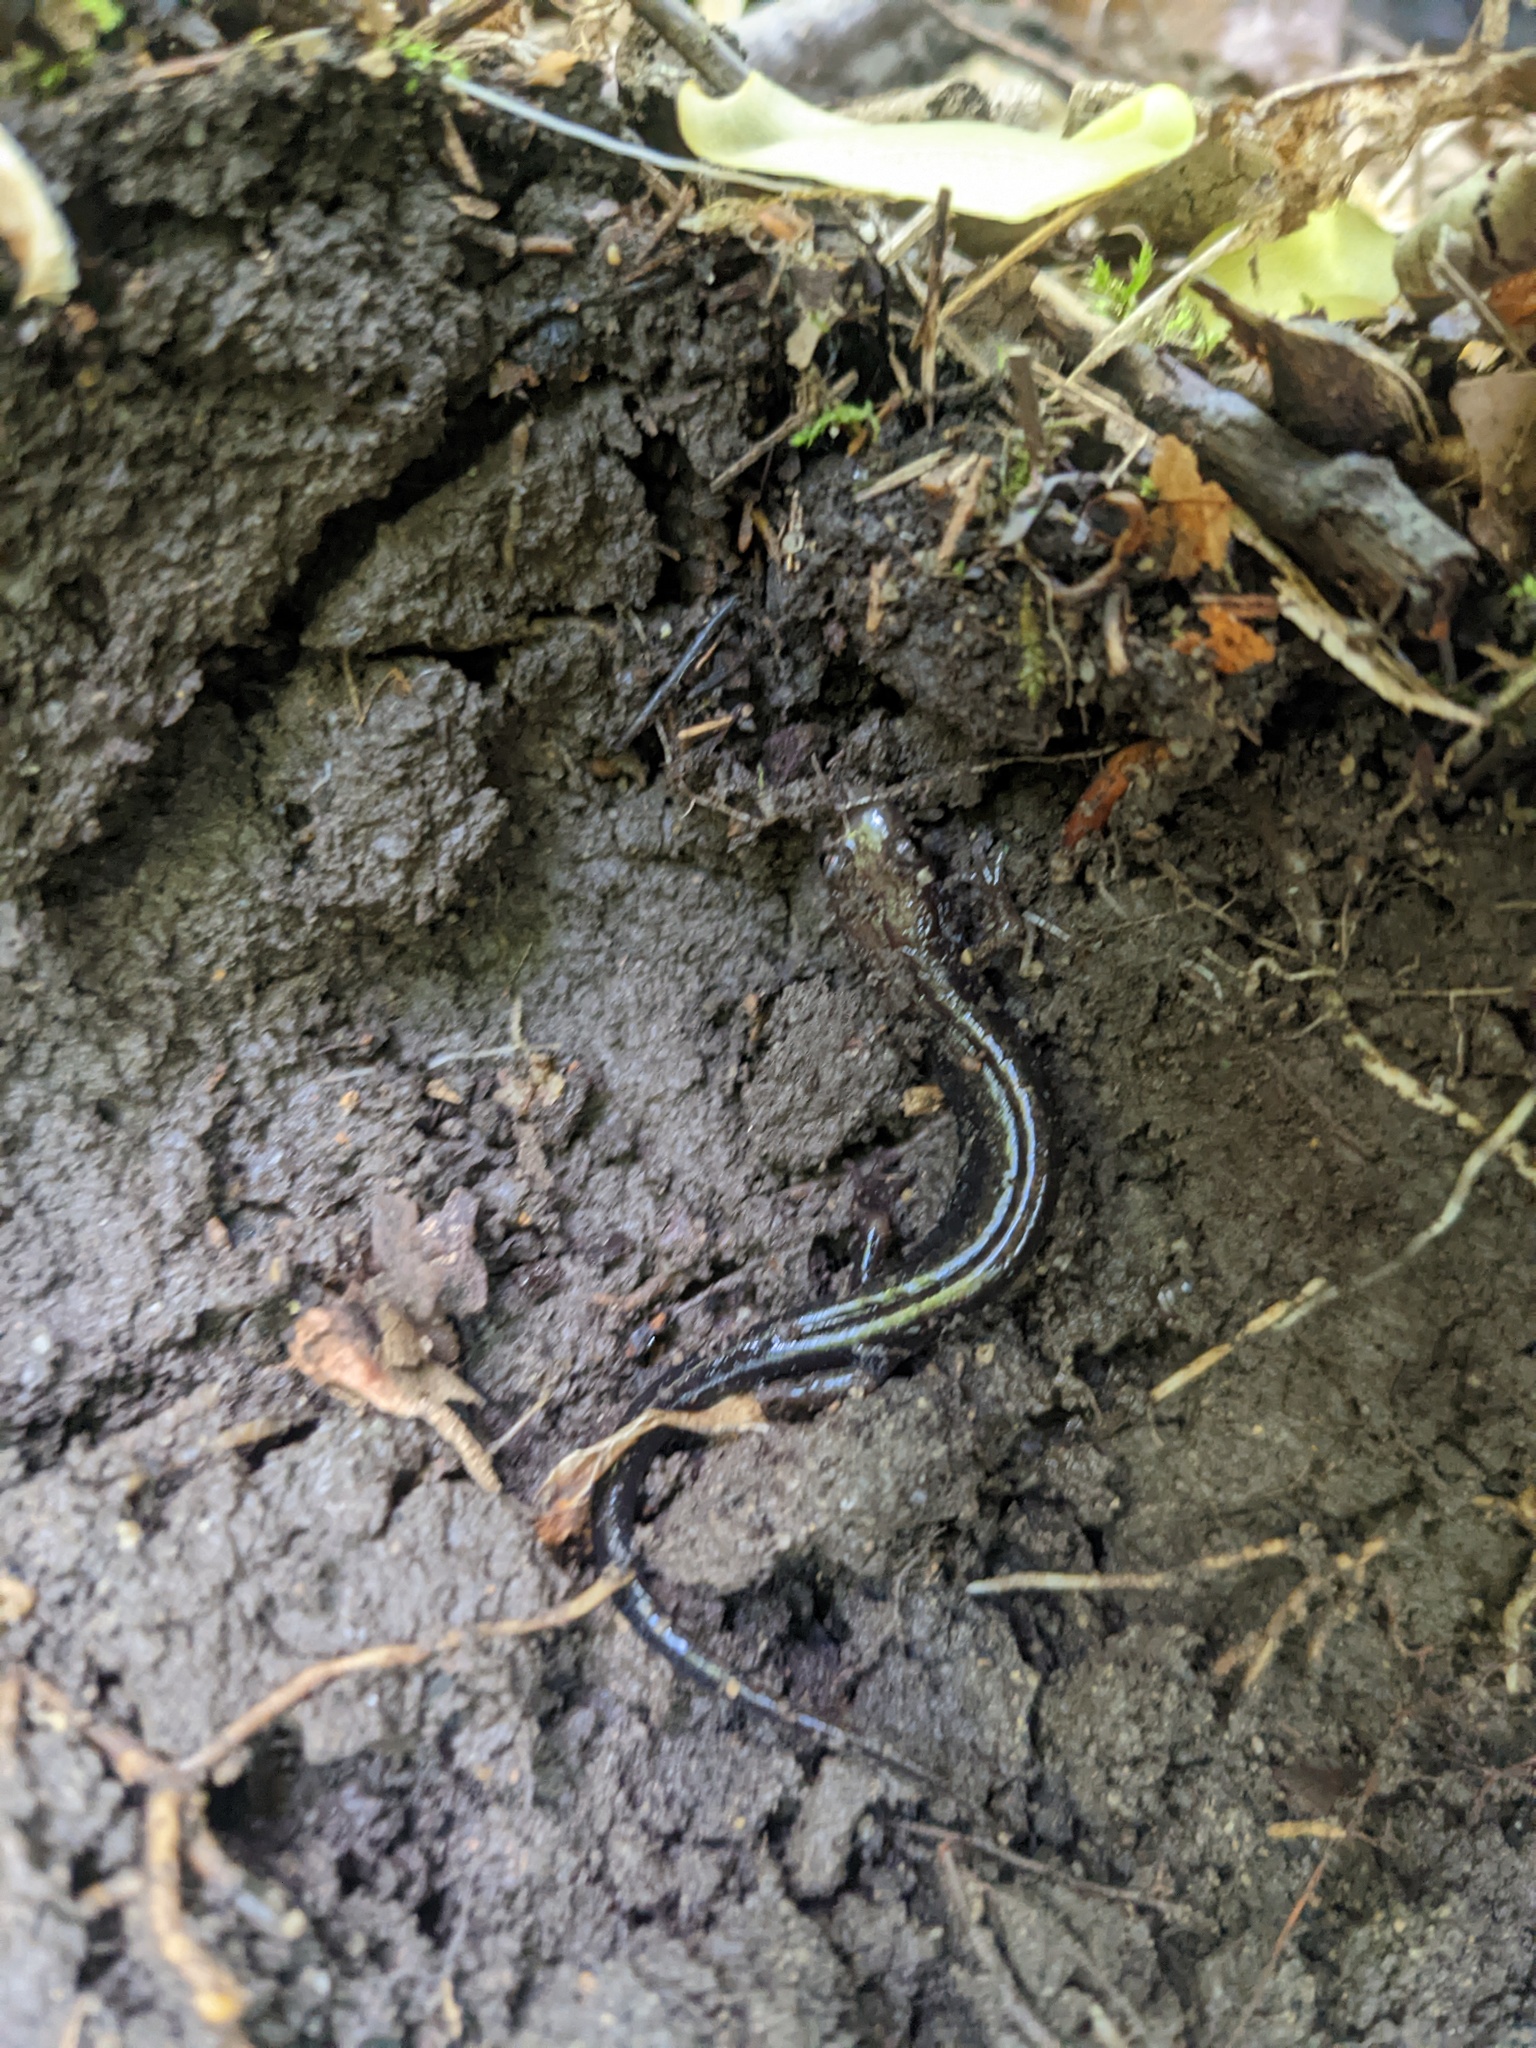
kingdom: Animalia
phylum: Chordata
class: Amphibia
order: Caudata
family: Plethodontidae
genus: Desmognathus
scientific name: Desmognathus ochrophaeus
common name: Allegheny mountain dusky salamander
